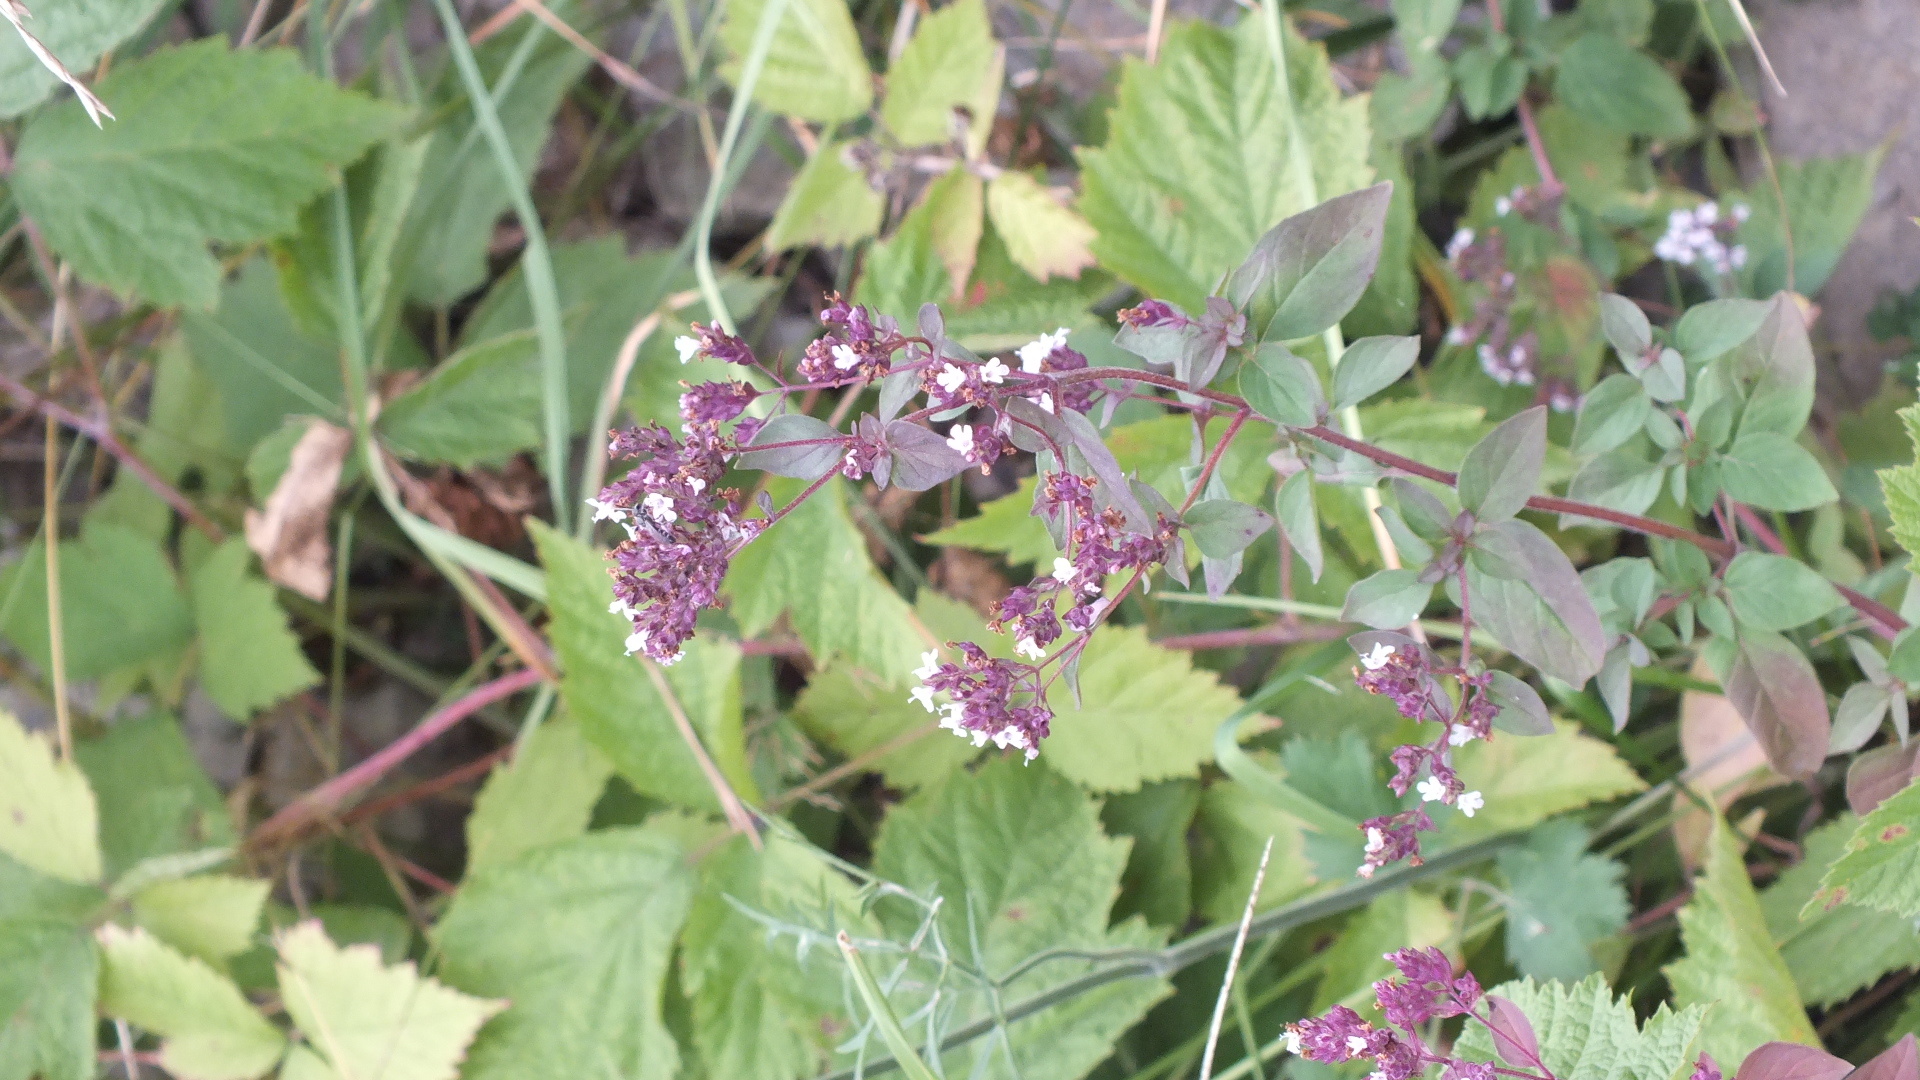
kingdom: Plantae
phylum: Tracheophyta
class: Magnoliopsida
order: Lamiales
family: Lamiaceae
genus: Origanum
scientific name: Origanum vulgare
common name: Wild marjoram
